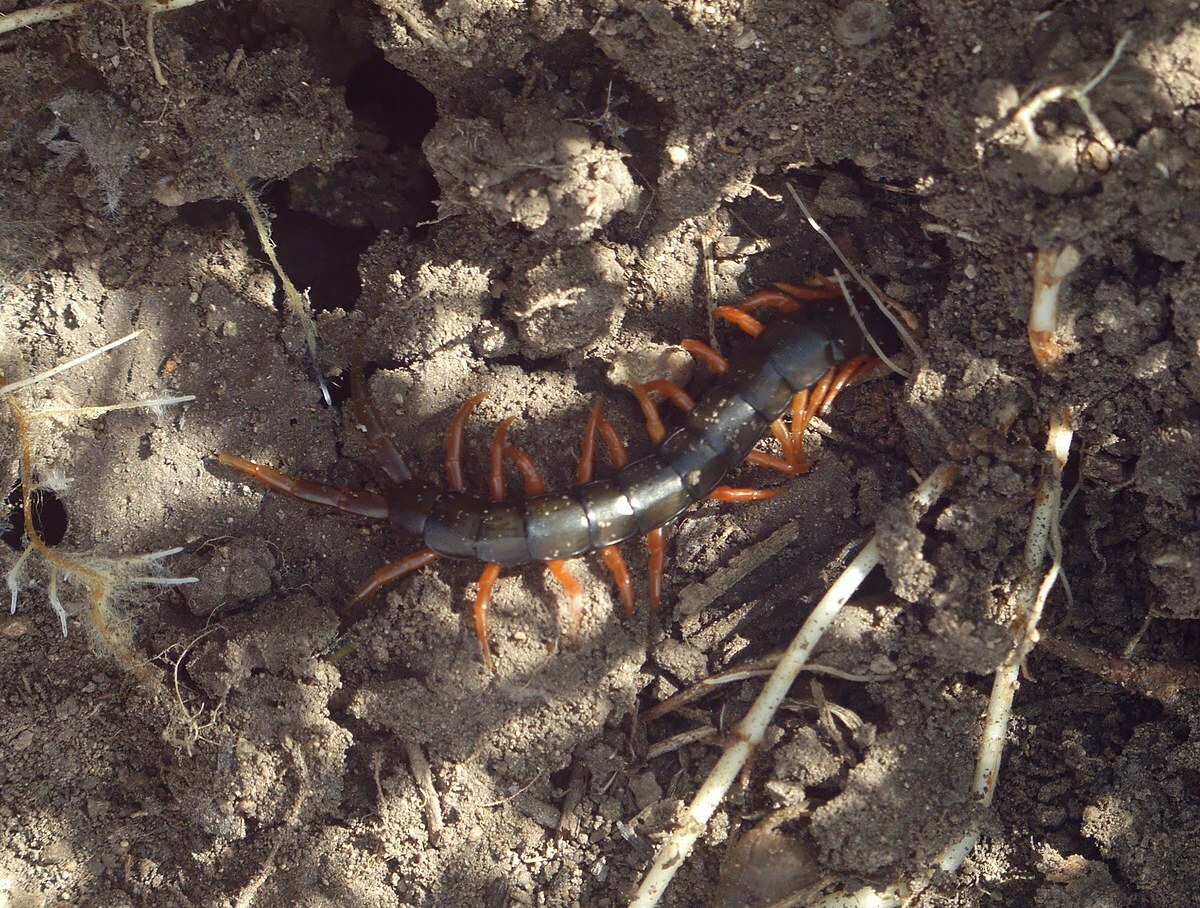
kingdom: Animalia
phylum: Arthropoda
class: Chilopoda
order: Scolopendromorpha
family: Scolopendridae
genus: Scolopendra
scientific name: Scolopendra cingulata
